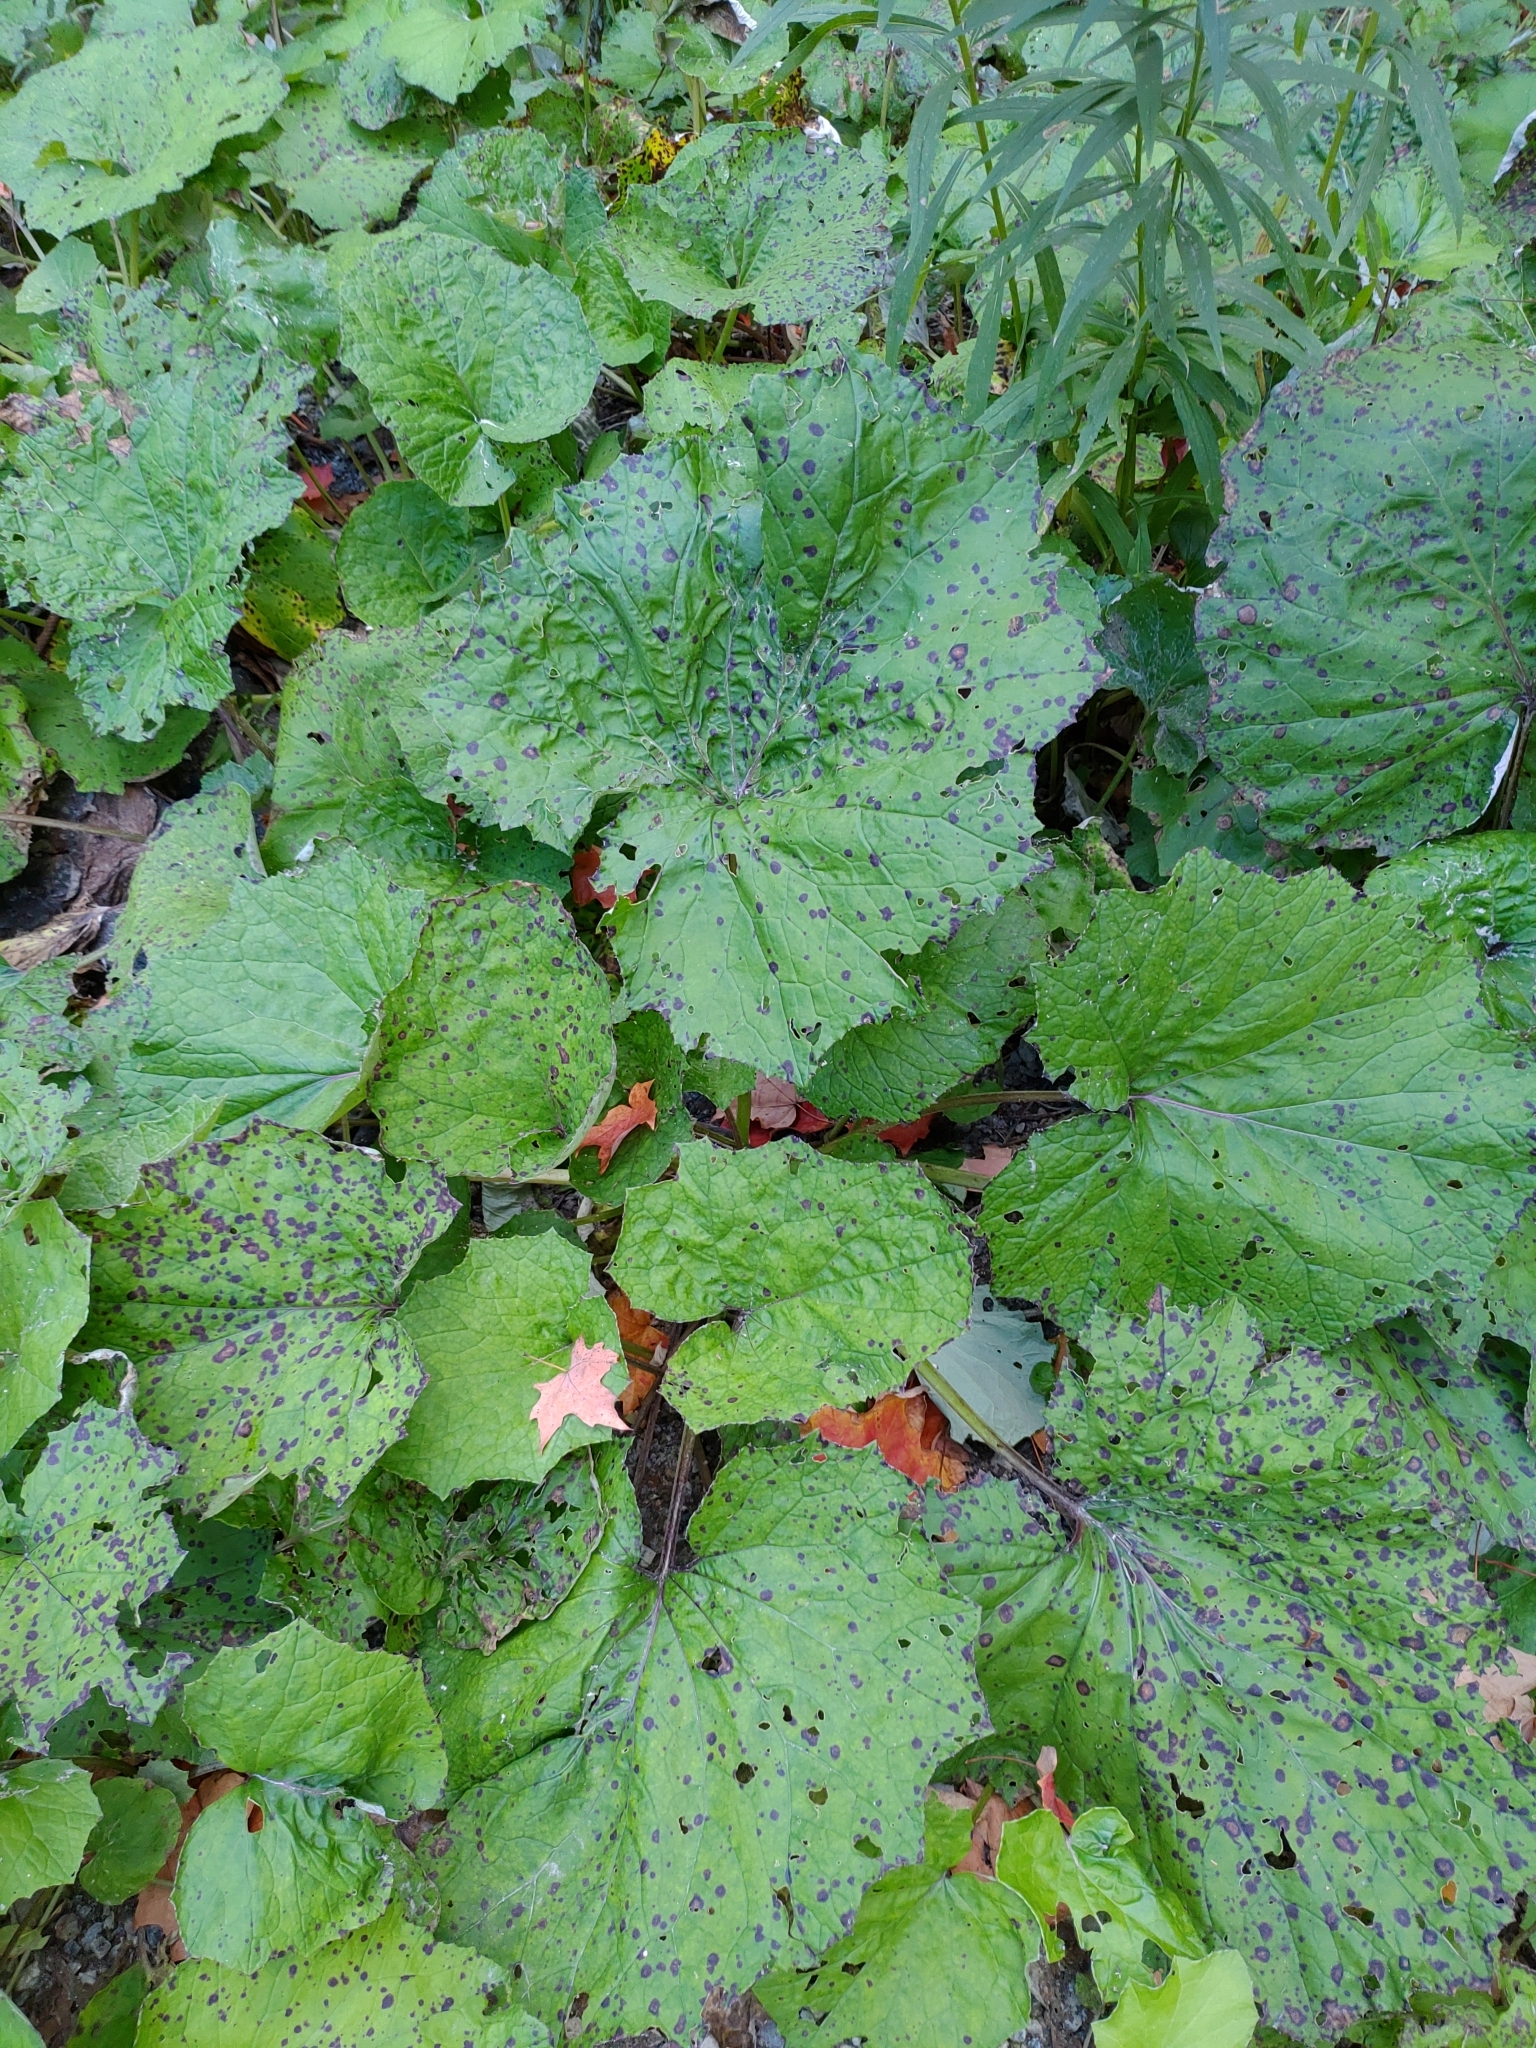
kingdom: Plantae
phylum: Tracheophyta
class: Magnoliopsida
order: Asterales
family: Asteraceae
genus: Tussilago
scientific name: Tussilago farfara
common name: Coltsfoot
